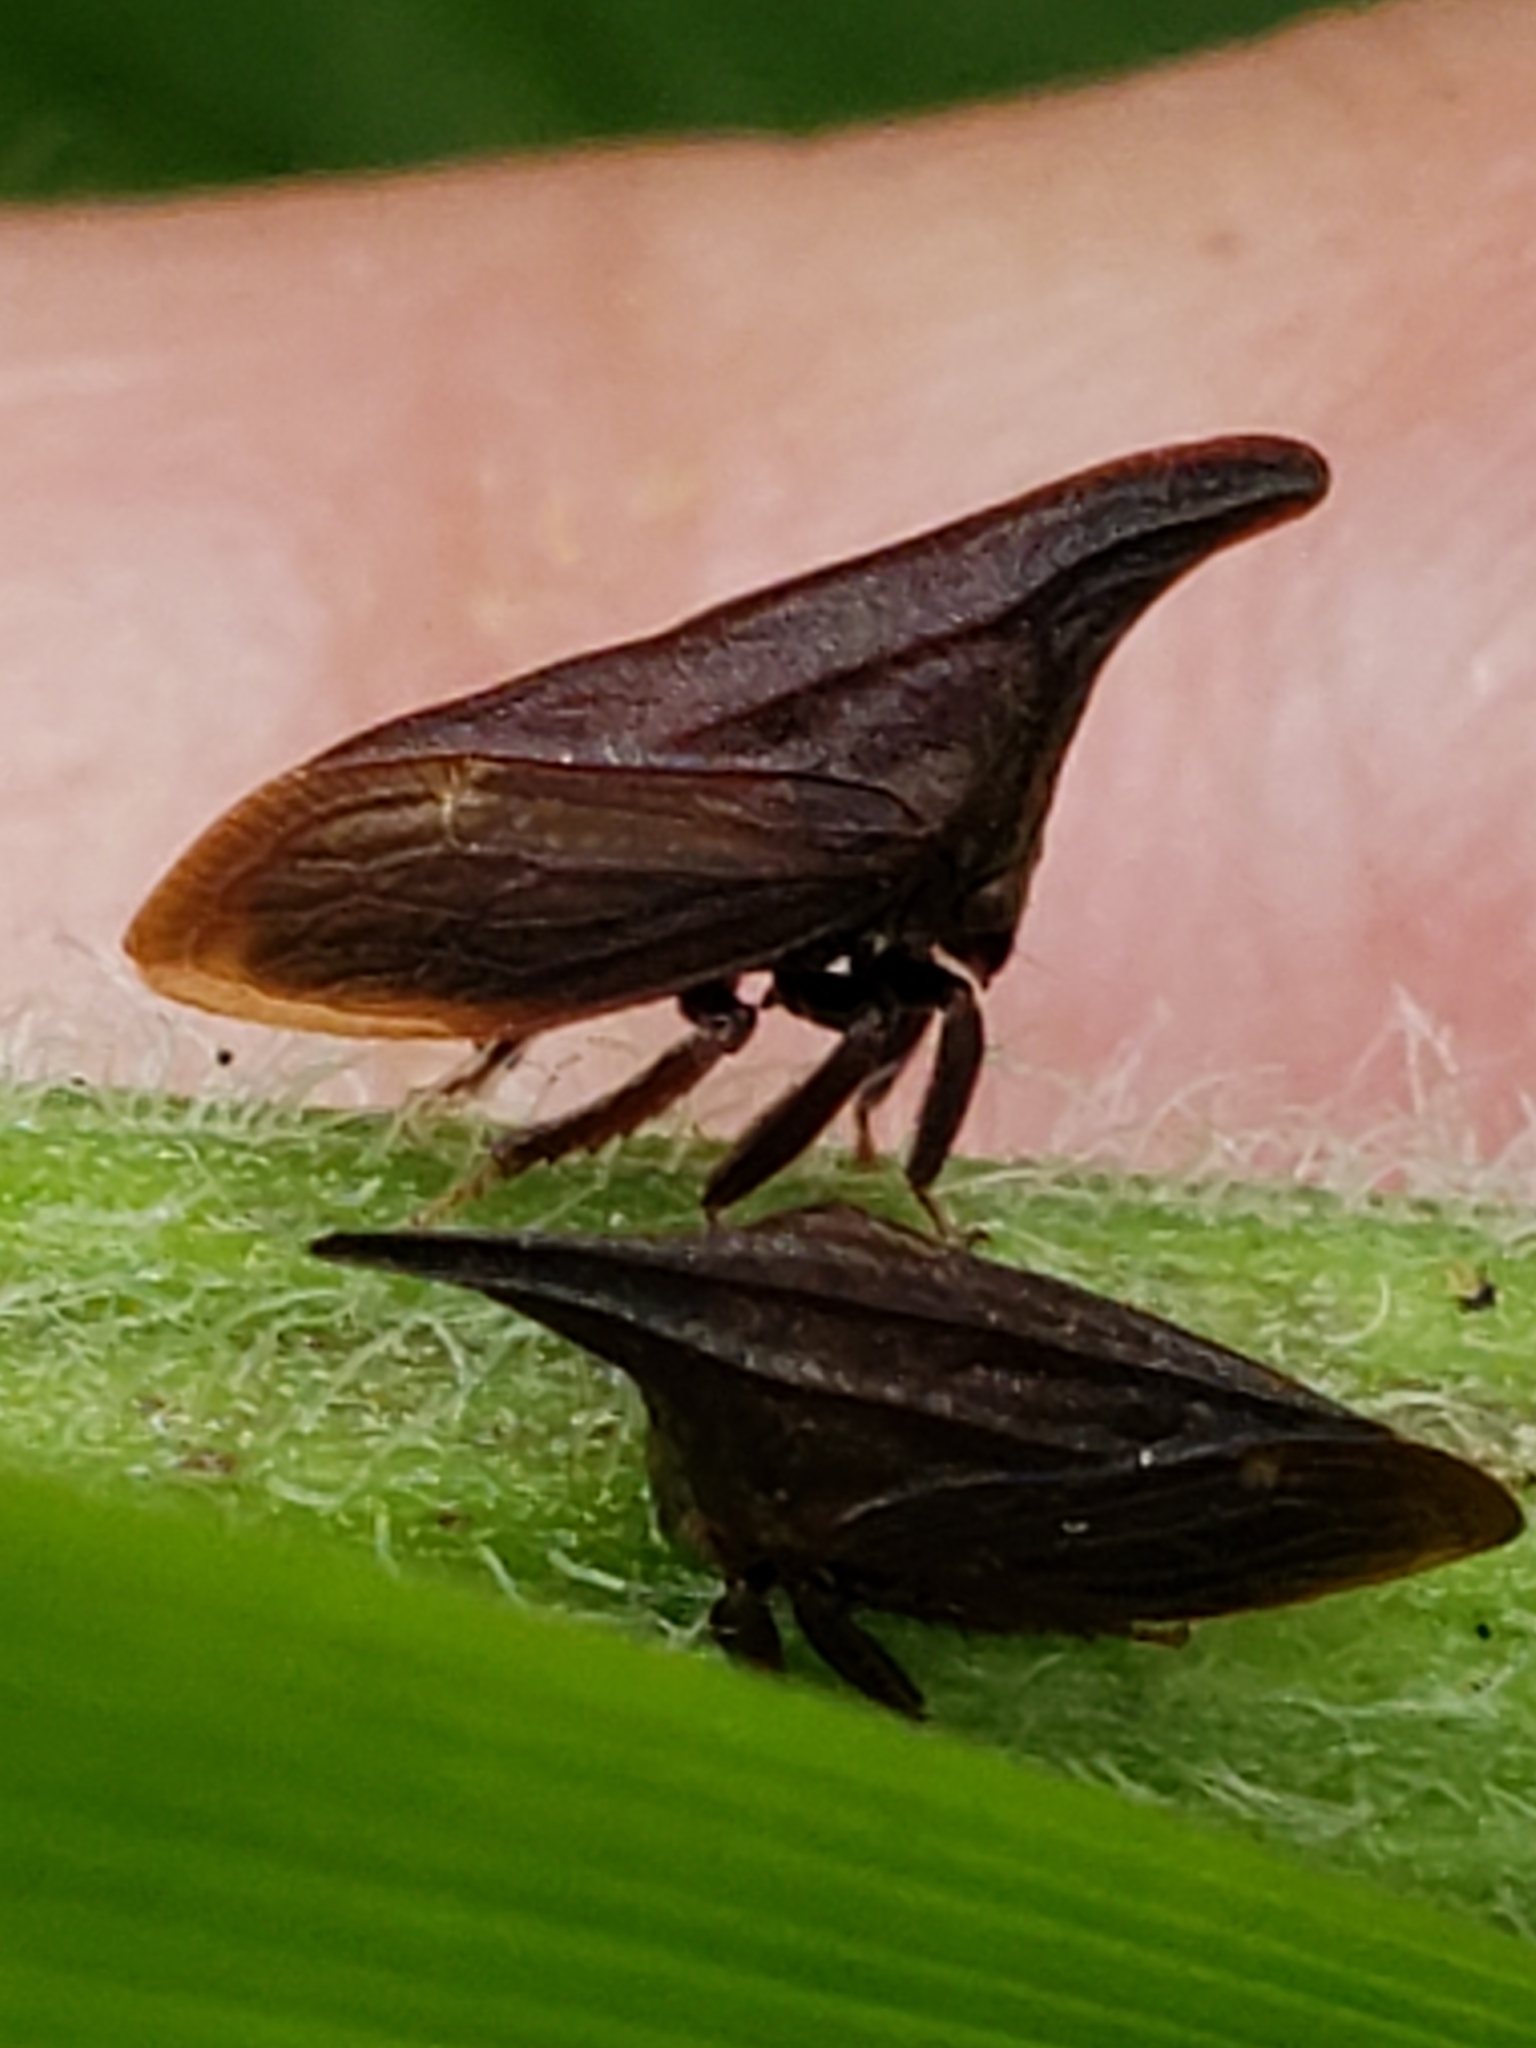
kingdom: Animalia
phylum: Arthropoda
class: Insecta
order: Hemiptera
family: Membracidae
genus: Enchenopa
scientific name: Enchenopa latipes
